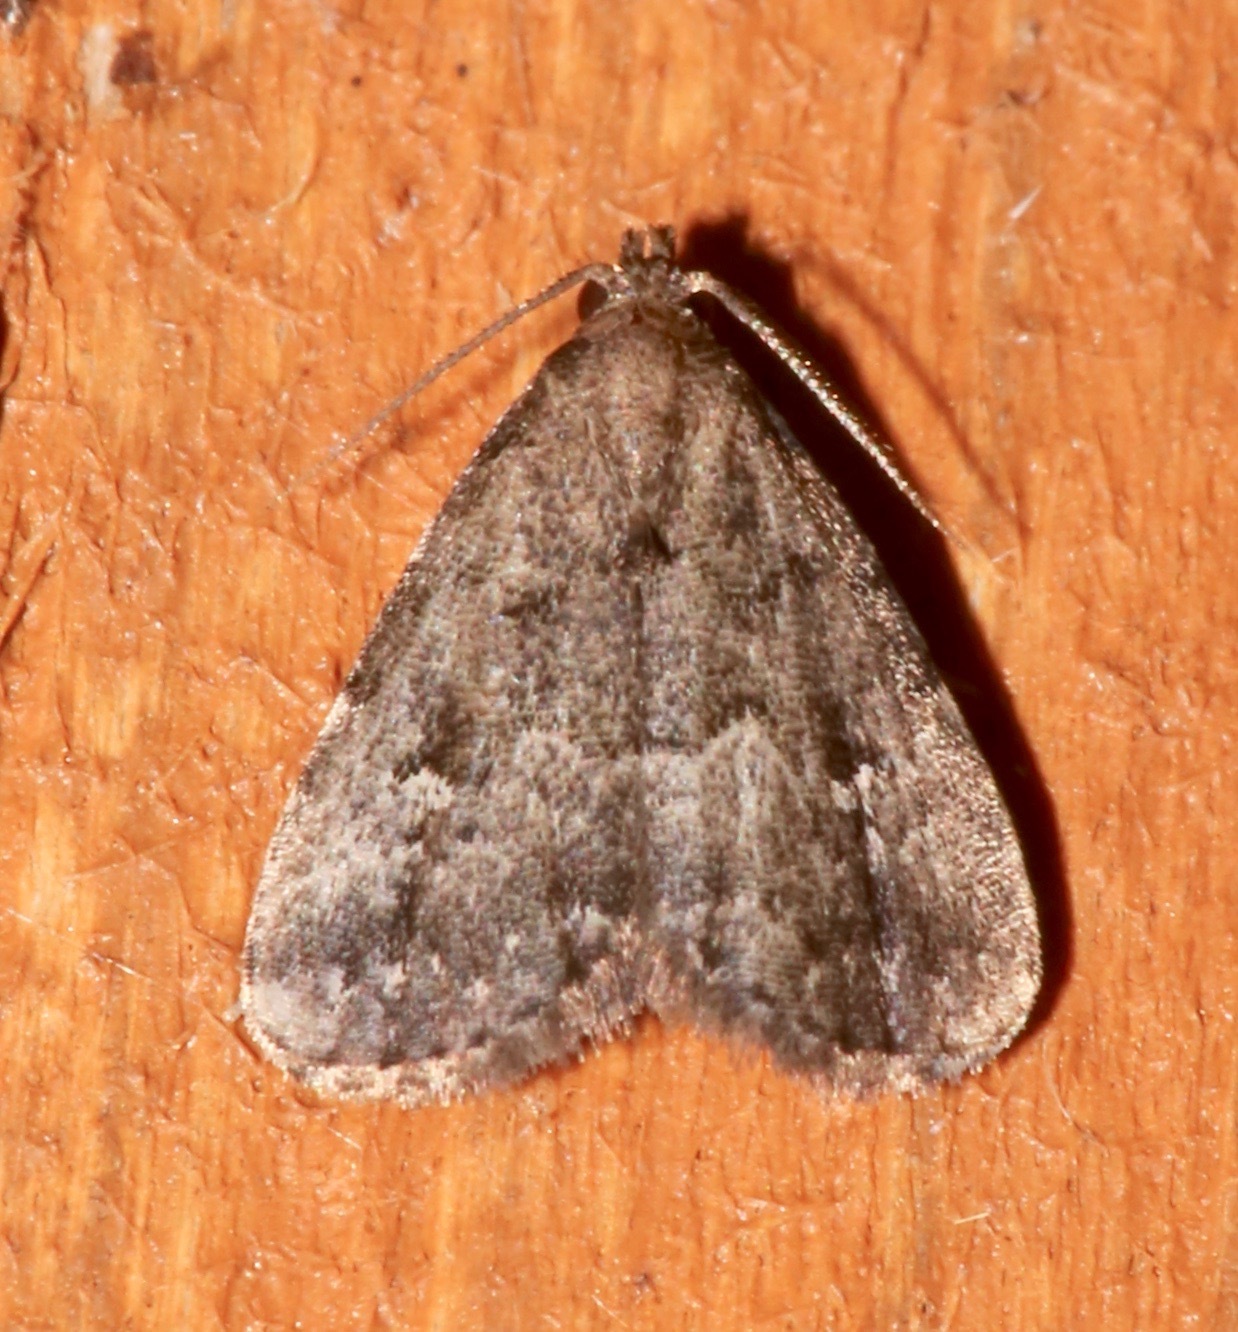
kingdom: Animalia
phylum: Arthropoda
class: Insecta
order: Lepidoptera
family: Erebidae
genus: Dyspyralis
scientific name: Dyspyralis nigellus
